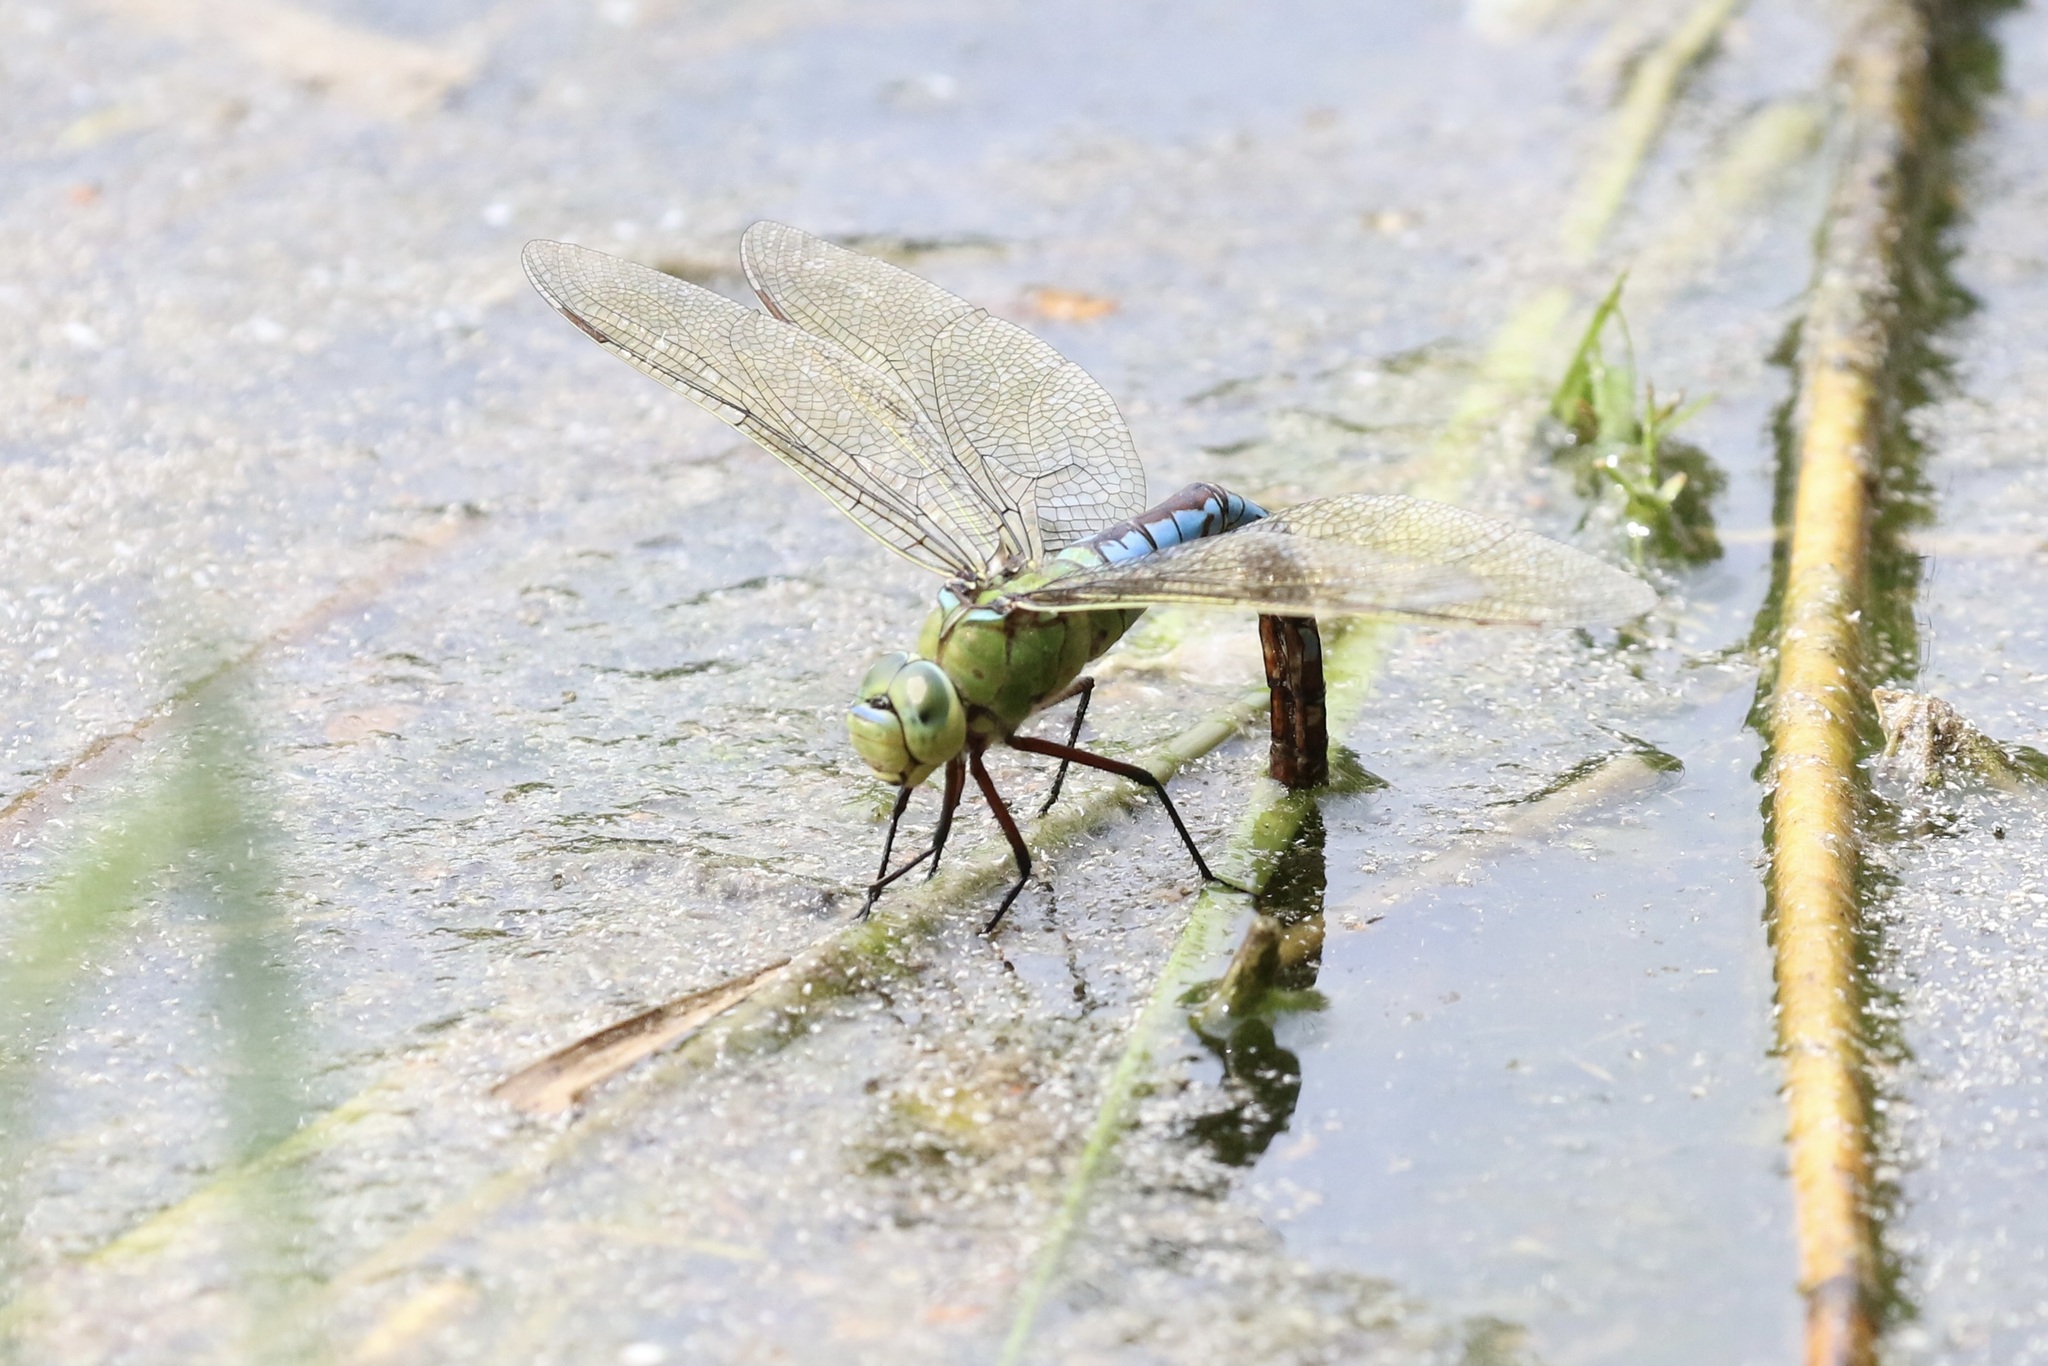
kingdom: Animalia
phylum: Arthropoda
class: Insecta
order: Odonata
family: Aeshnidae
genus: Anax
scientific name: Anax imperator
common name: Emperor dragonfly
